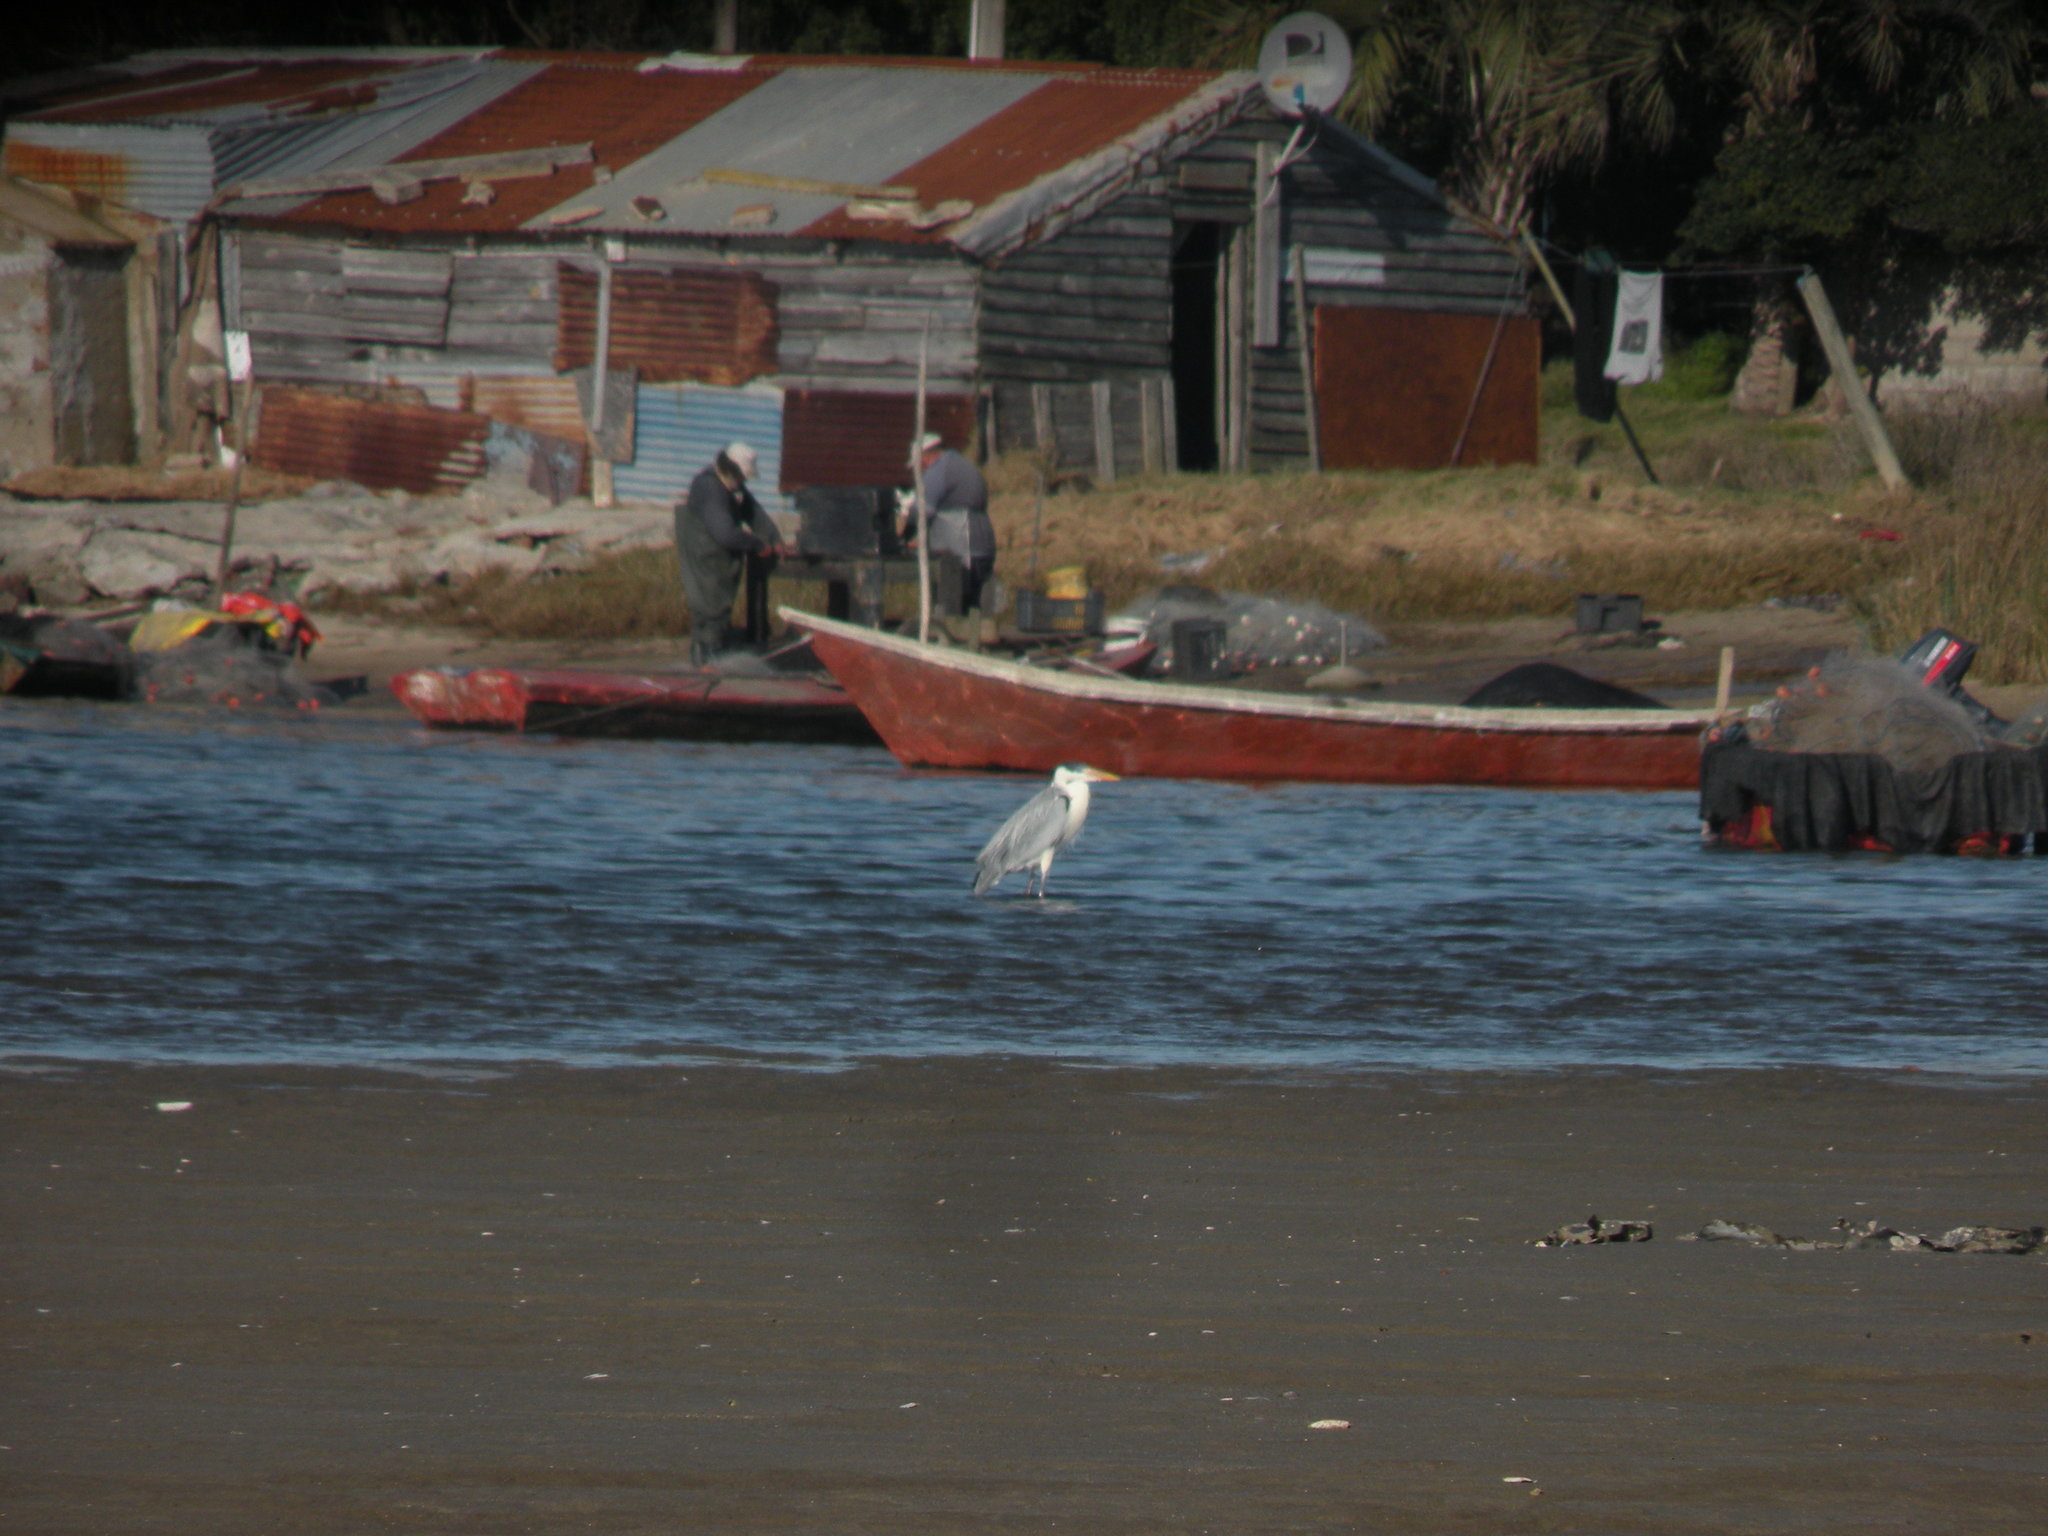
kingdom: Animalia
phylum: Chordata
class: Aves
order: Pelecaniformes
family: Ardeidae
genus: Ardea
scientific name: Ardea cocoi
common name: Cocoi heron
